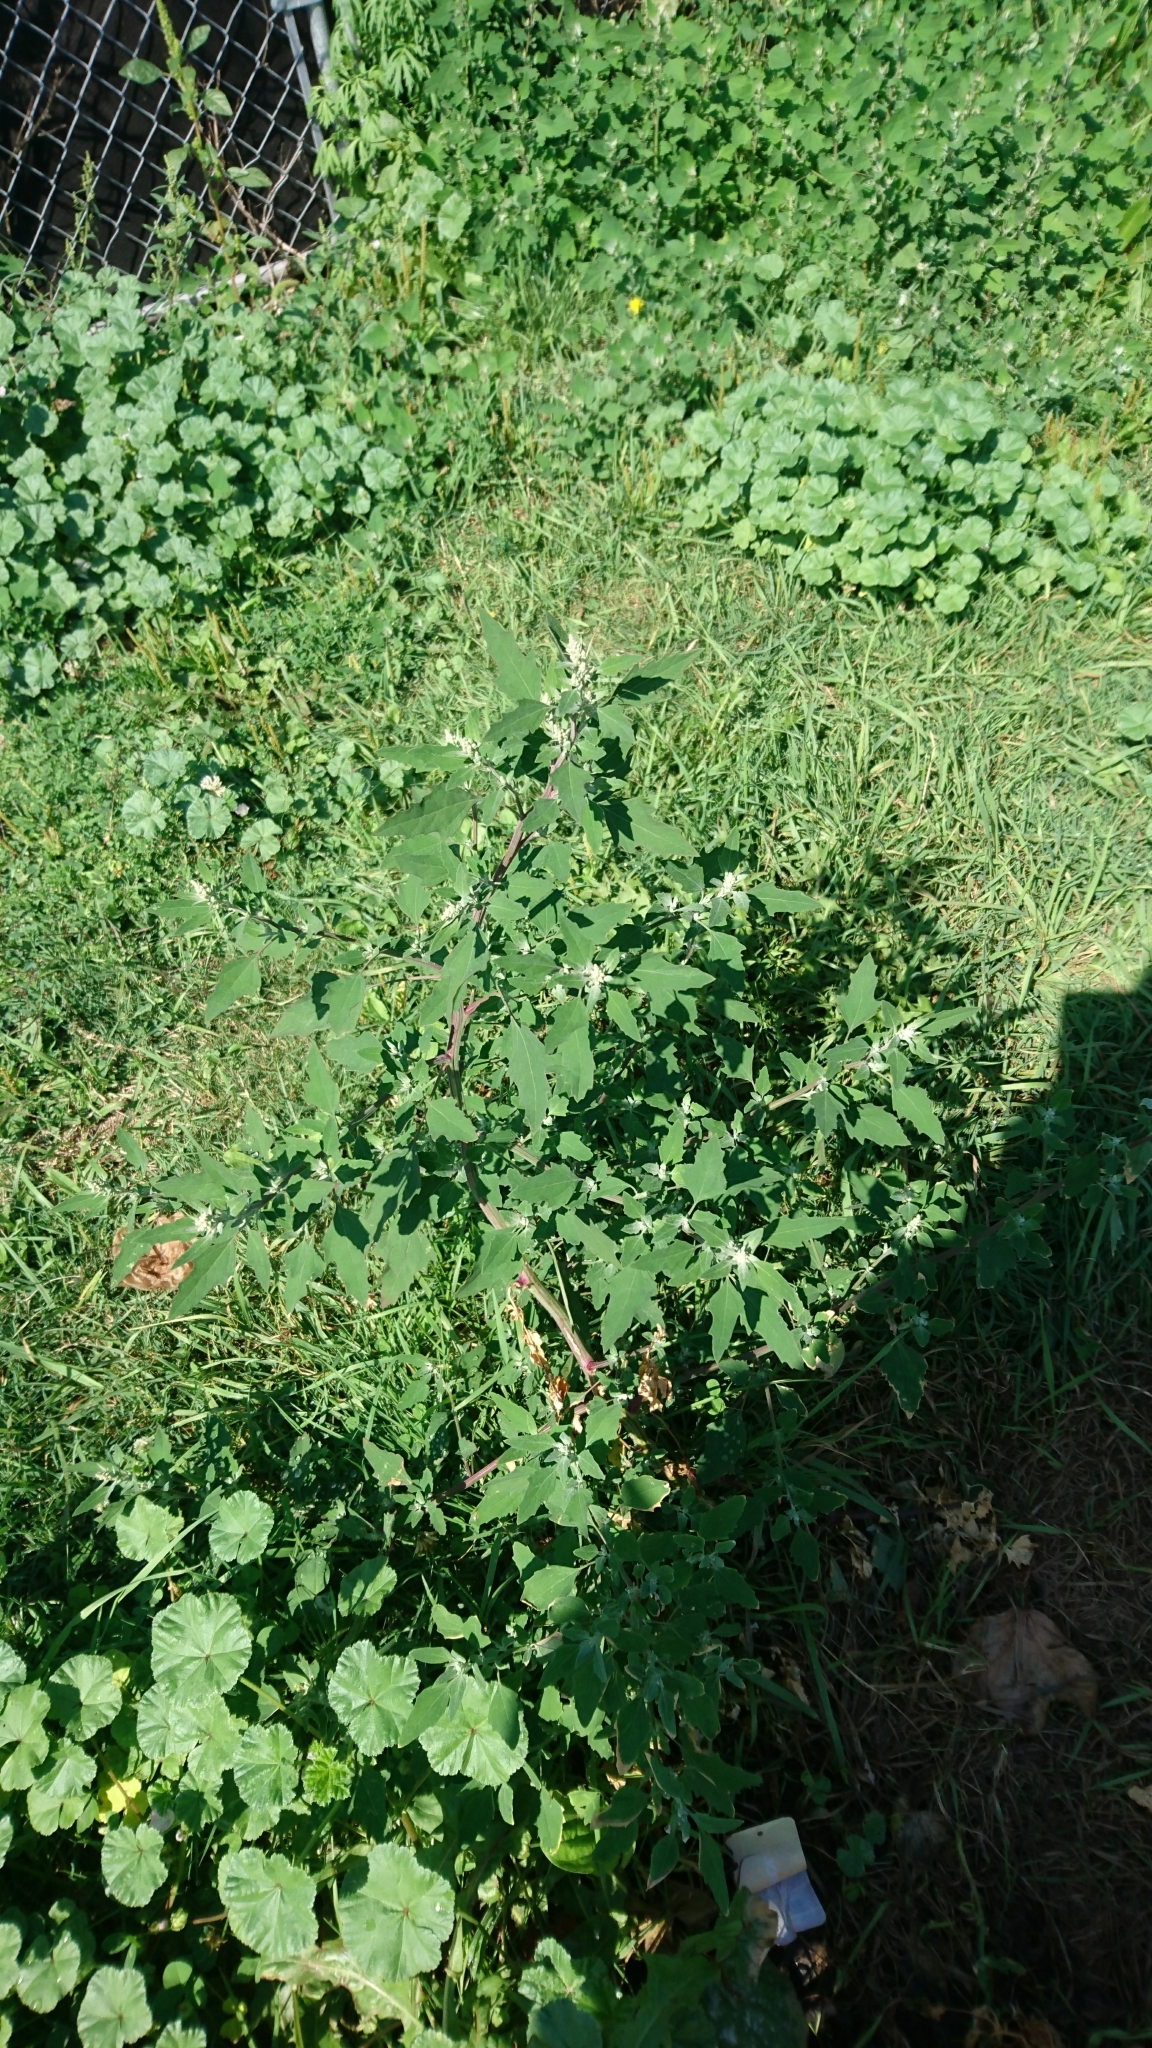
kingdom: Plantae
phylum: Tracheophyta
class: Magnoliopsida
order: Caryophyllales
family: Amaranthaceae
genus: Chenopodium
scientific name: Chenopodium album
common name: Fat-hen
